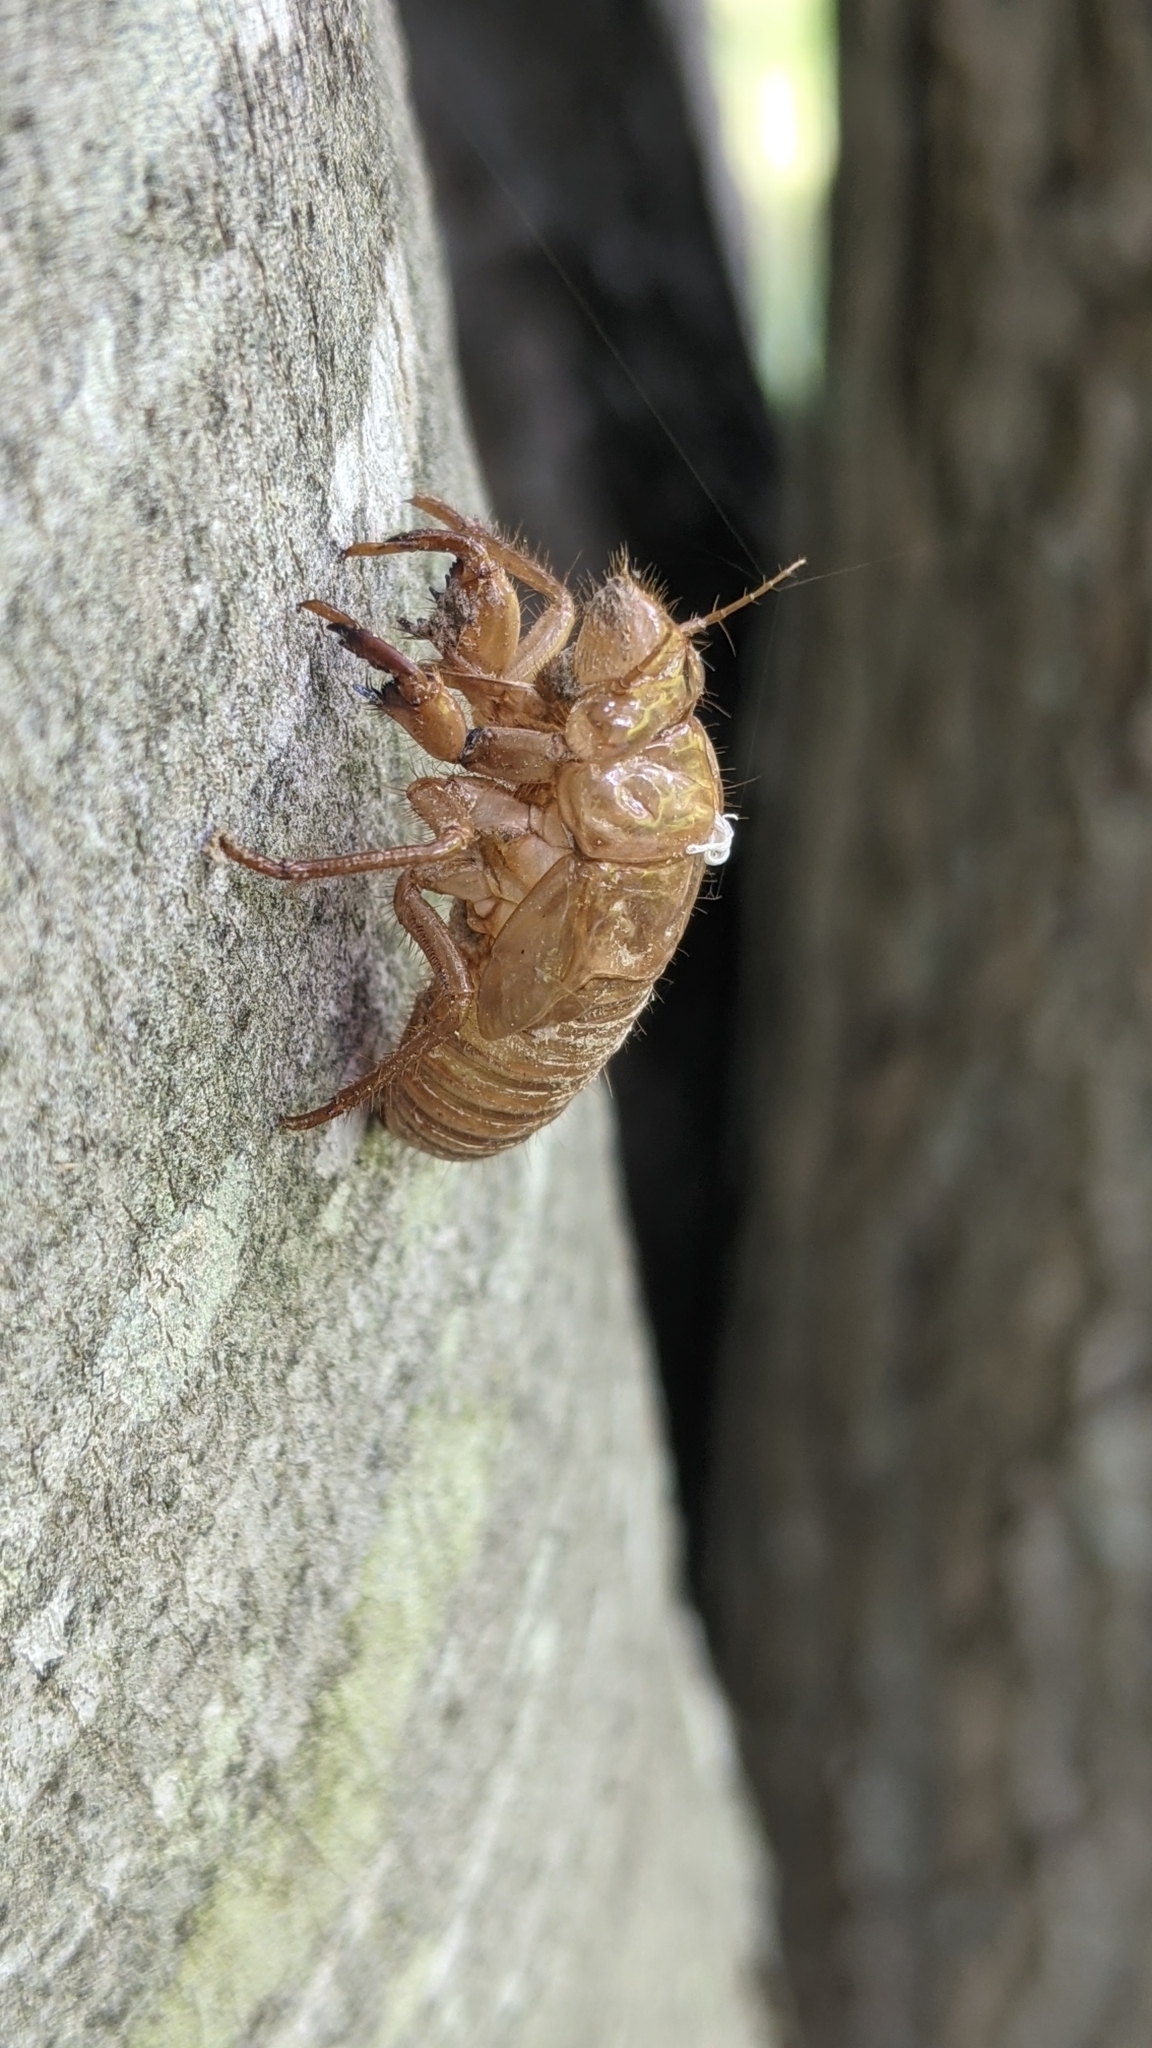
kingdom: Animalia
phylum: Arthropoda
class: Insecta
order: Hemiptera
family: Cicadidae
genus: Magicicada
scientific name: Magicicada
